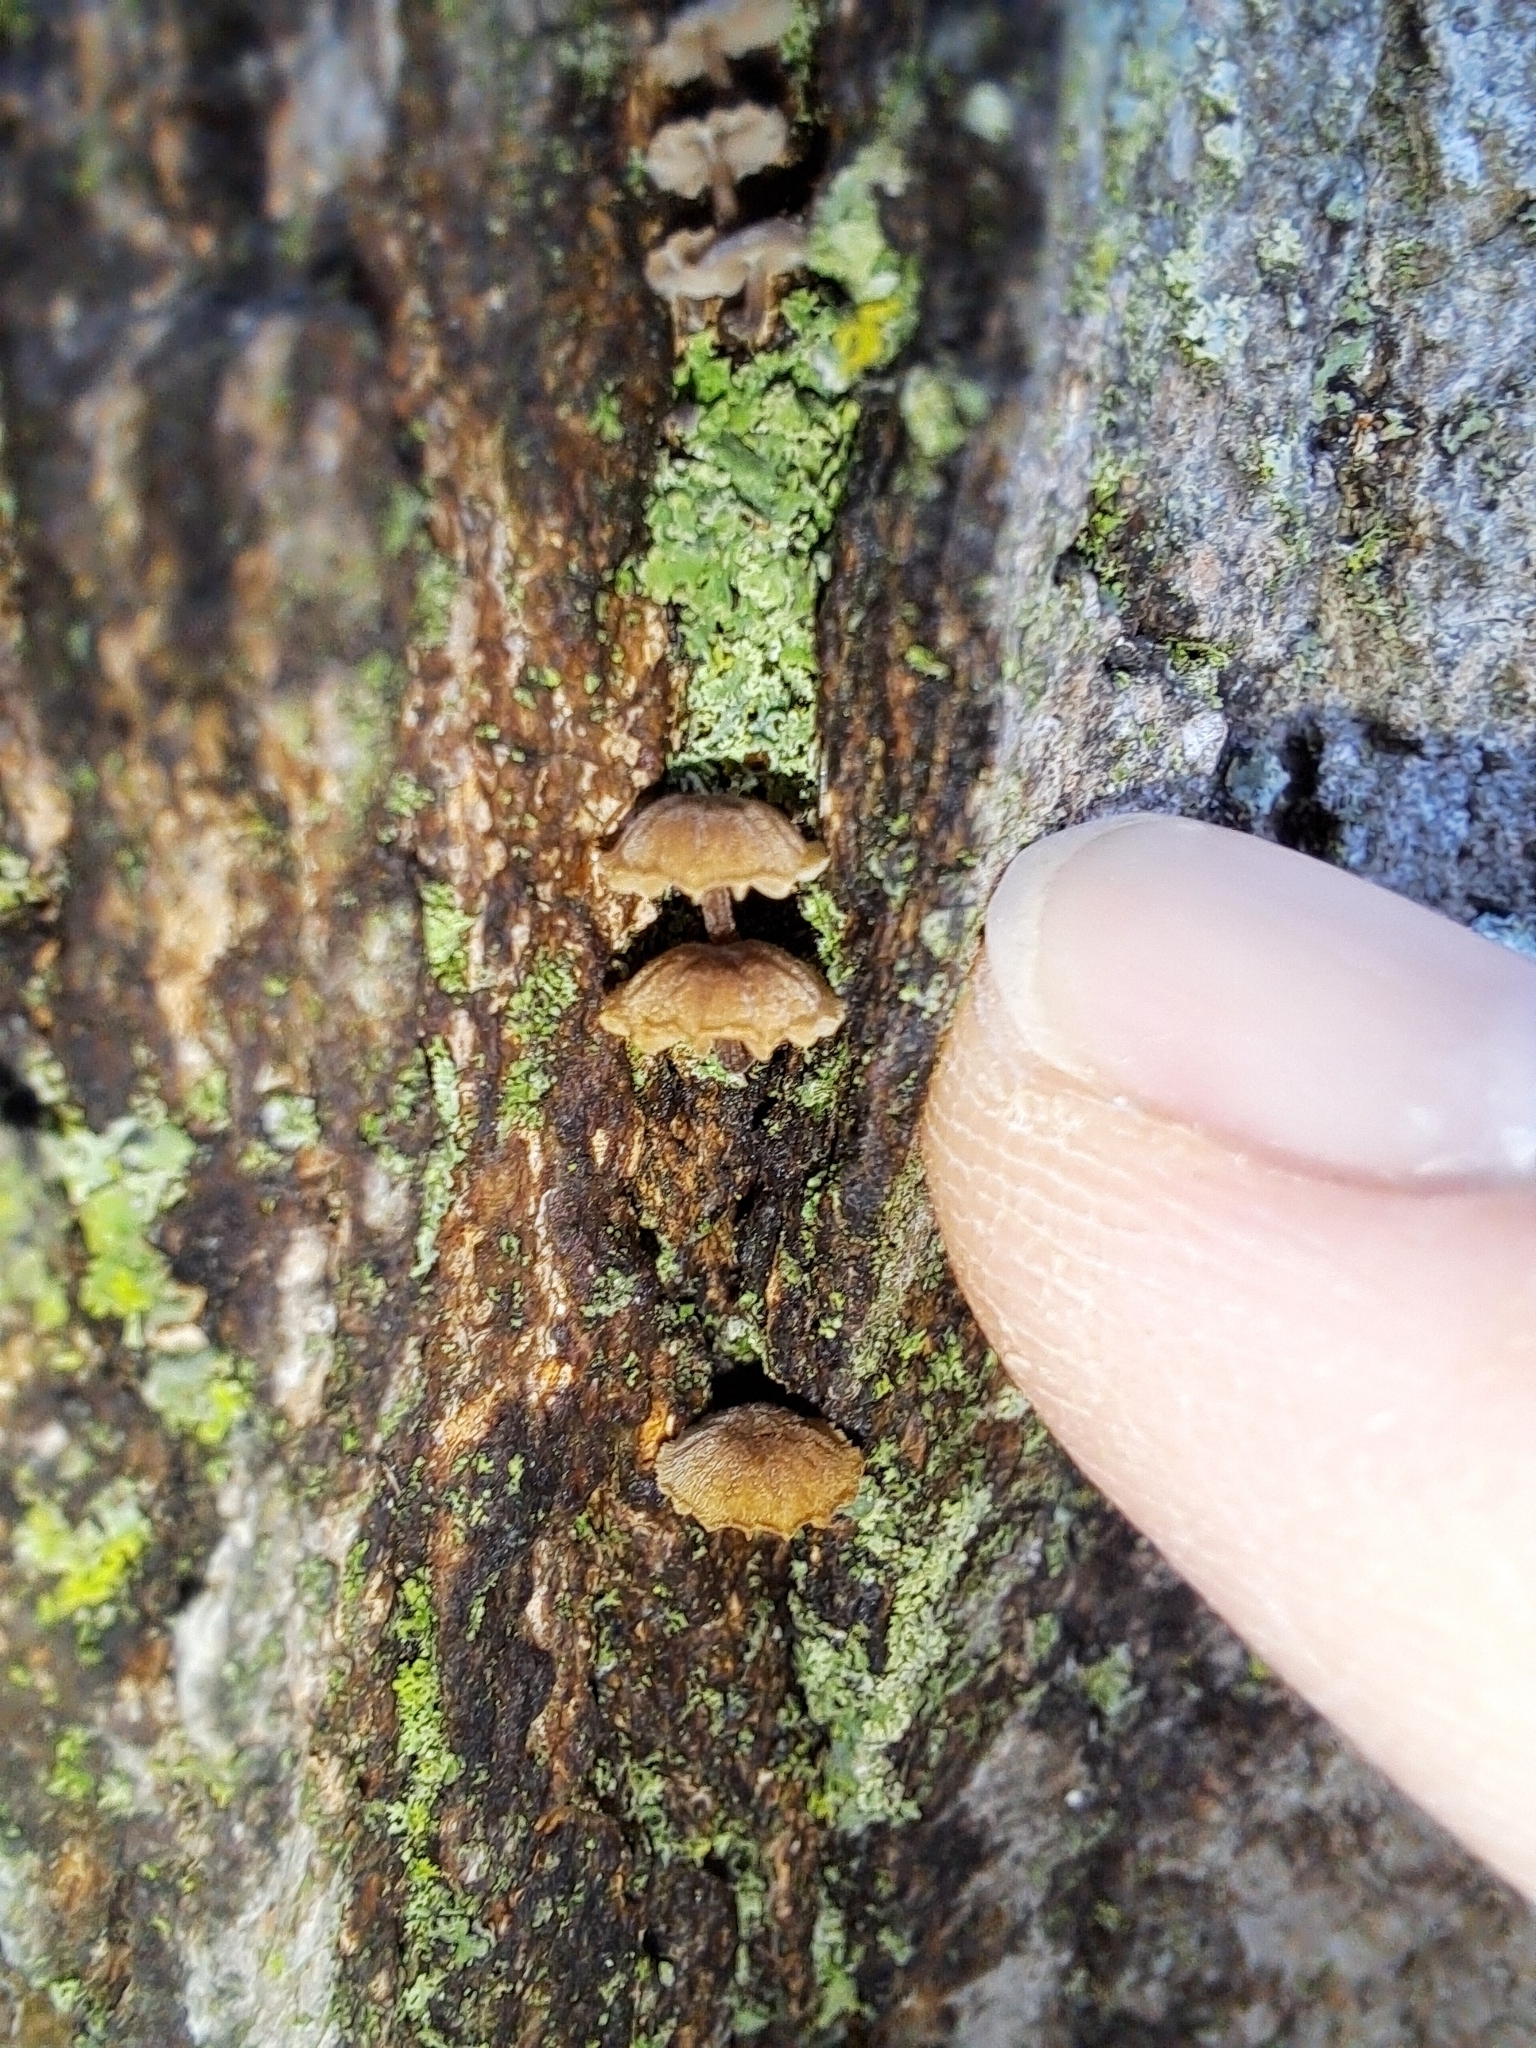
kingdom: Fungi
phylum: Basidiomycota
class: Agaricomycetes
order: Agaricales
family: Mycenaceae
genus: Mycena
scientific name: Mycena corticola
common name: Bark mycena
